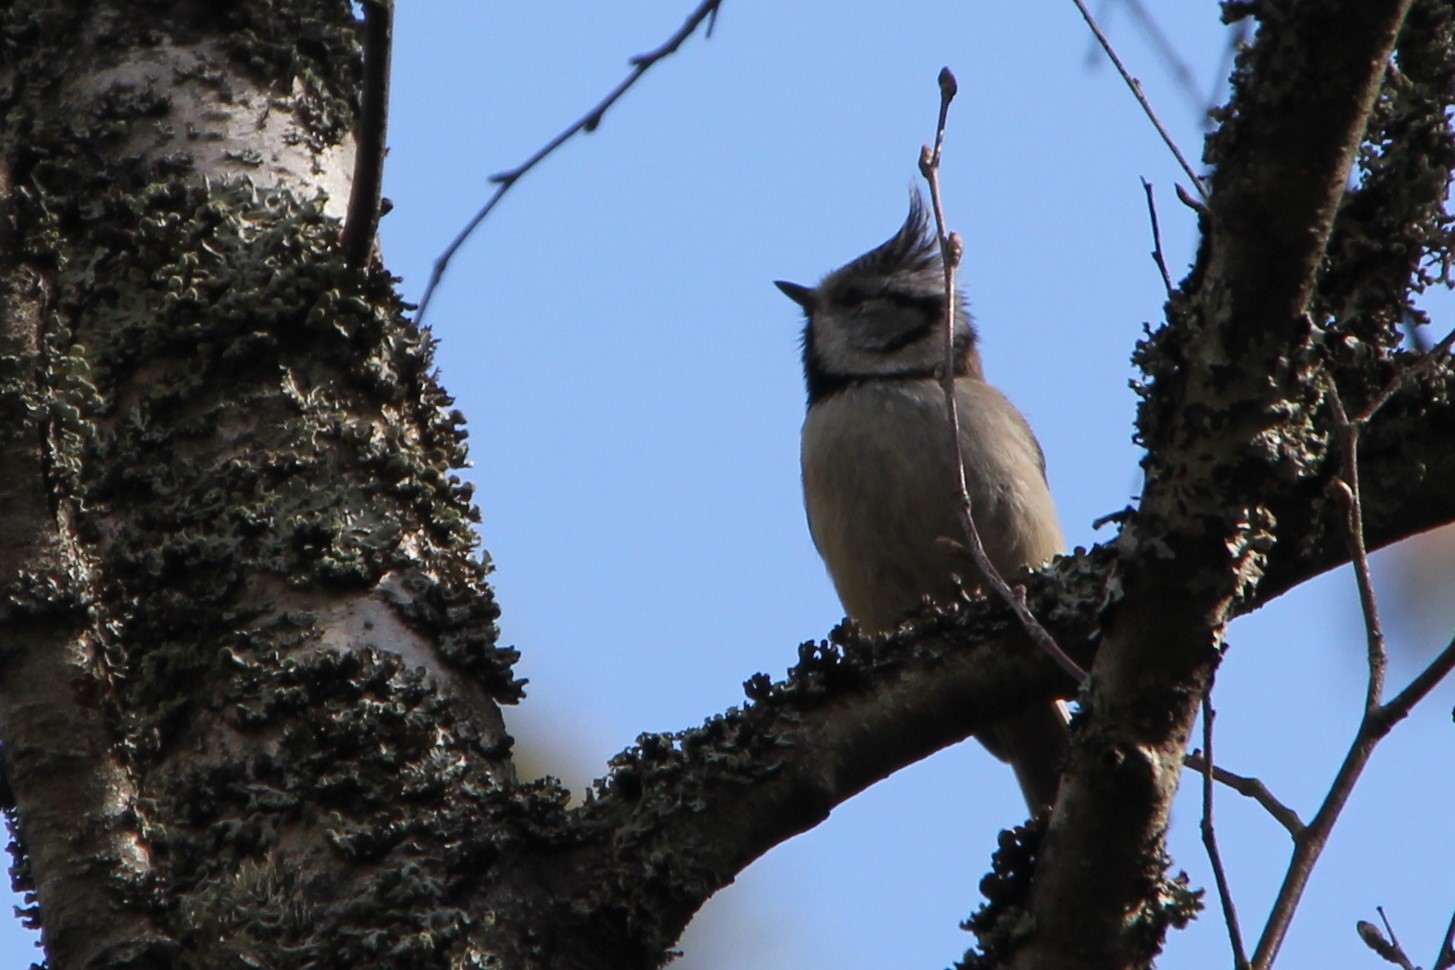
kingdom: Animalia
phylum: Chordata
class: Aves
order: Passeriformes
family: Paridae
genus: Lophophanes
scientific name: Lophophanes cristatus
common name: European crested tit
